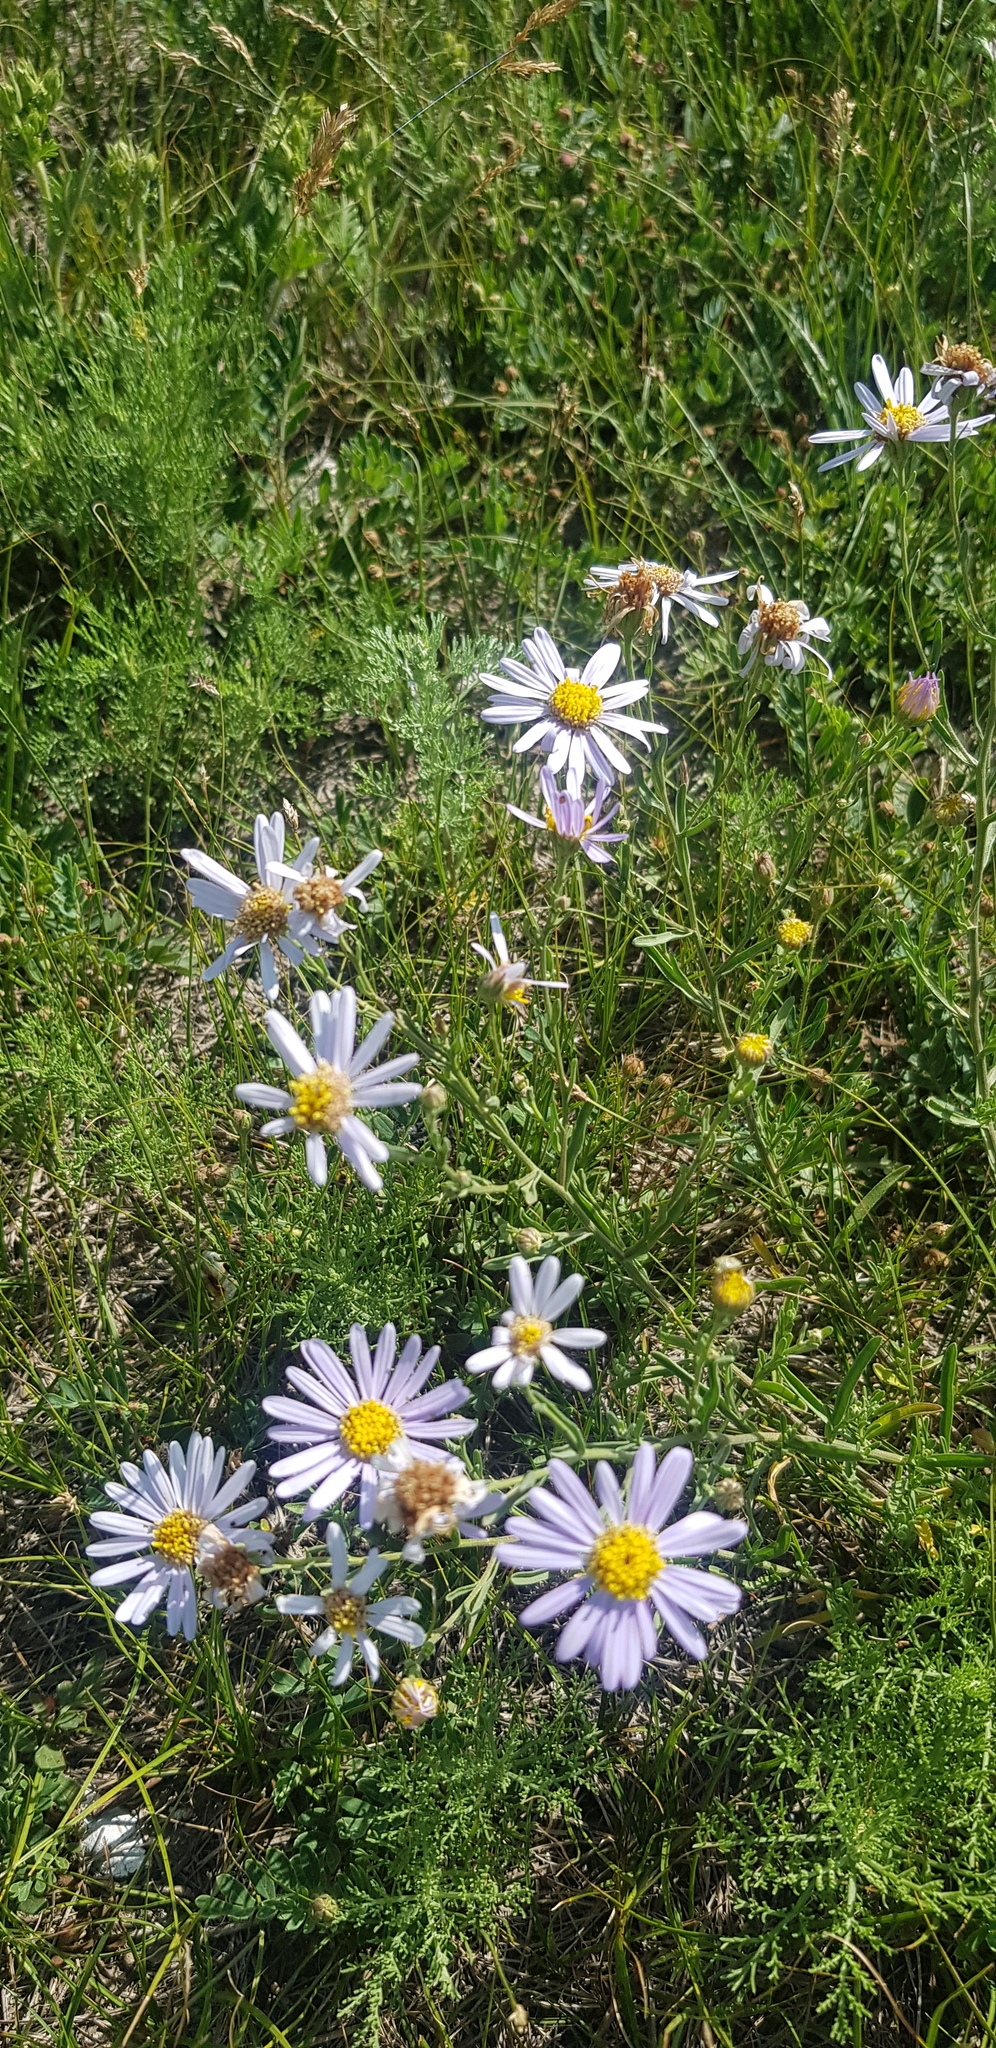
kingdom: Plantae
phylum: Tracheophyta
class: Magnoliopsida
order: Asterales
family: Asteraceae
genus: Heteropappus
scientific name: Heteropappus altaicus
